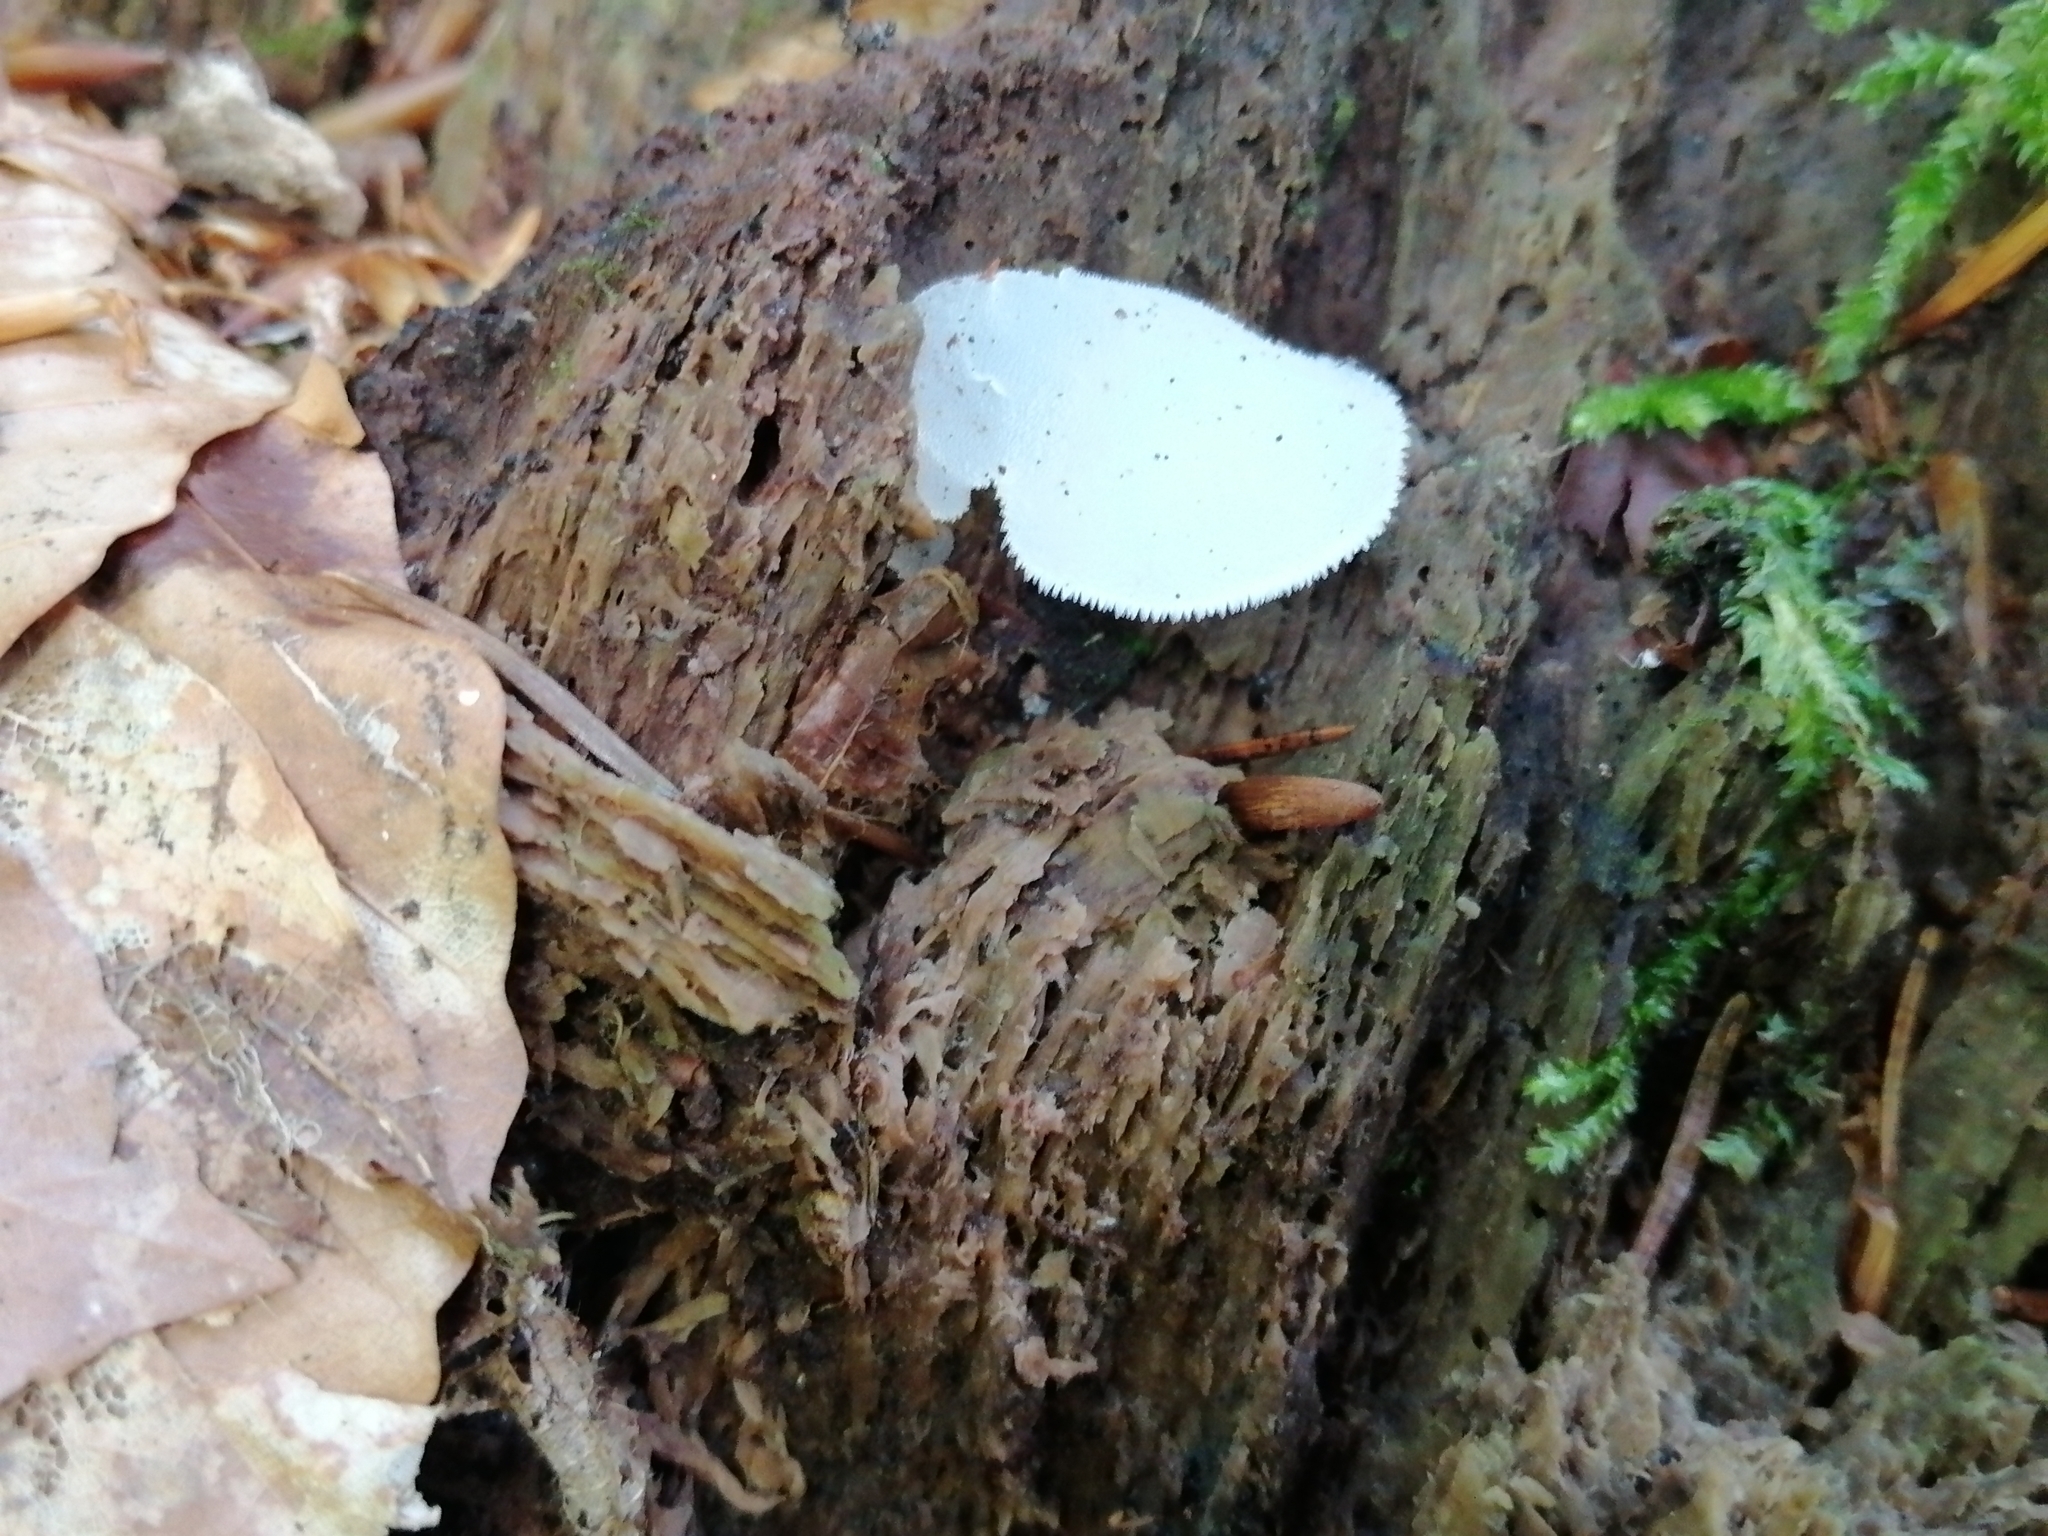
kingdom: Fungi
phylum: Basidiomycota
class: Agaricomycetes
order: Auriculariales
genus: Pseudohydnum
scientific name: Pseudohydnum gelatinosum
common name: Jelly tongue
